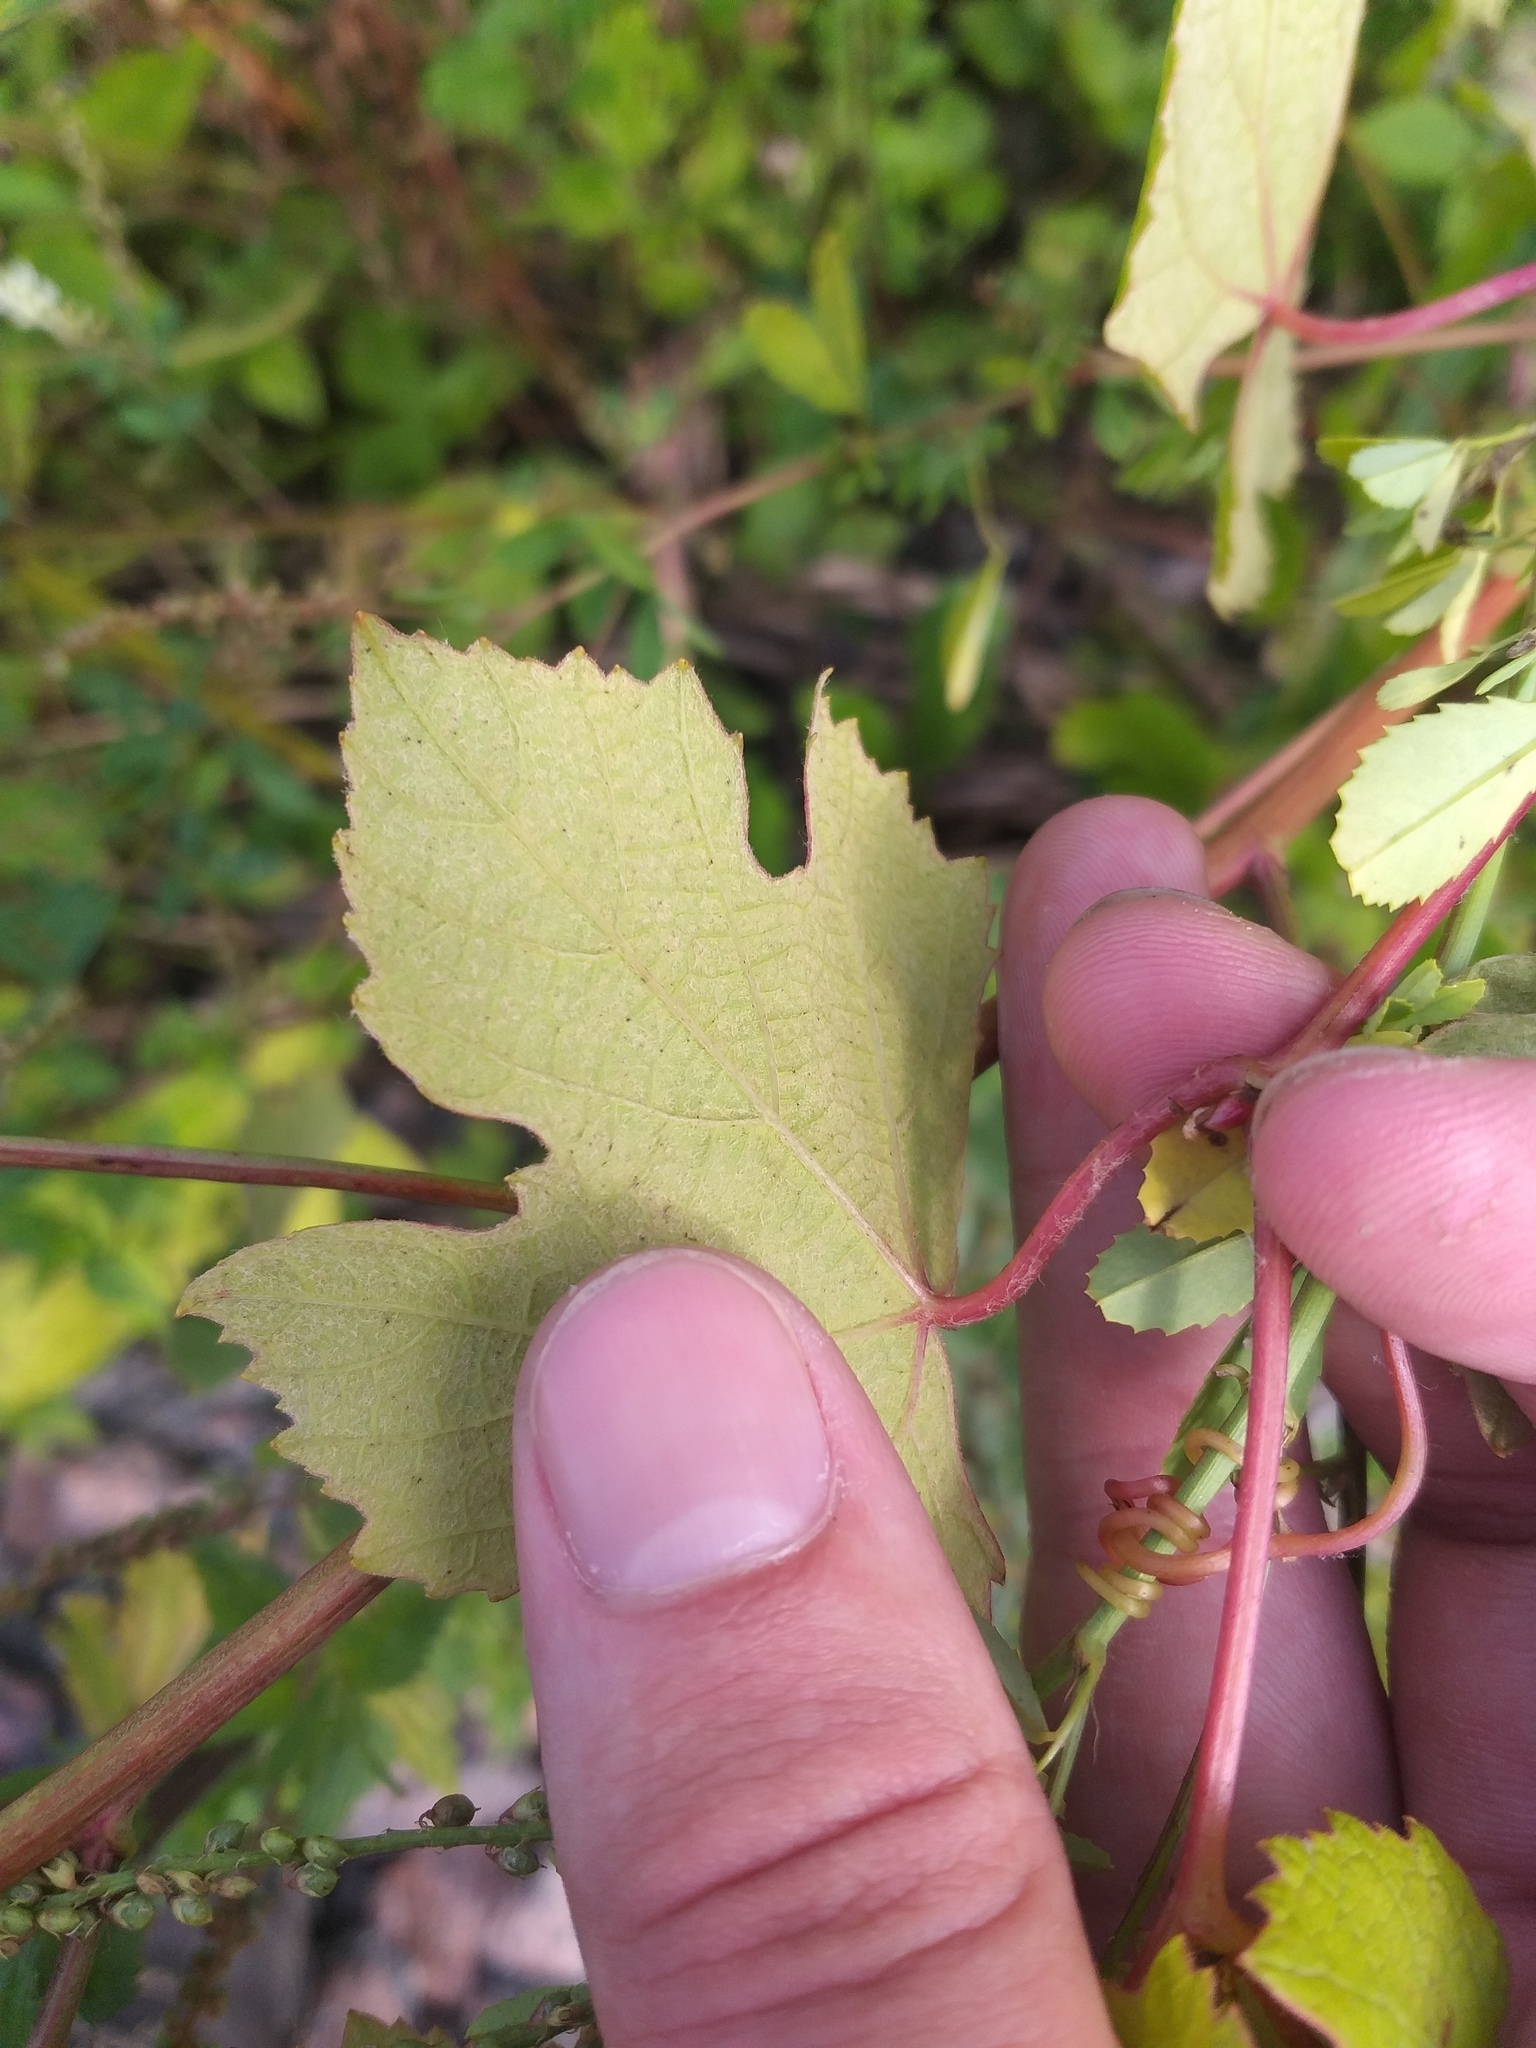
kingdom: Plantae
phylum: Tracheophyta
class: Magnoliopsida
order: Vitales
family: Vitaceae
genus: Vitis
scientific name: Vitis labrusca
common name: Concord grape
